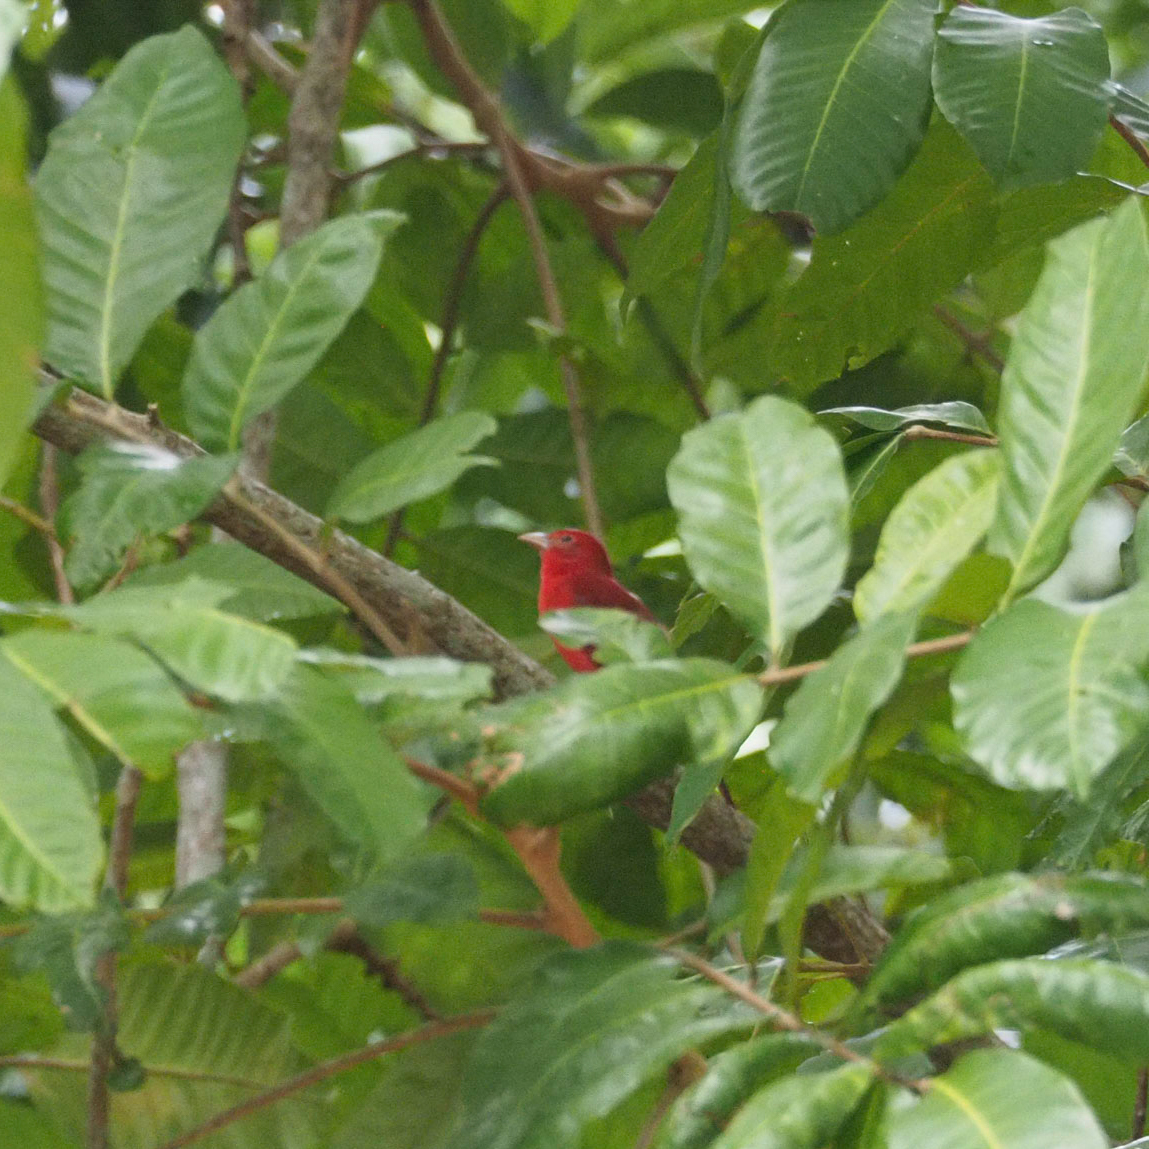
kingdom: Animalia
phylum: Chordata
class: Aves
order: Passeriformes
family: Cardinalidae
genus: Piranga
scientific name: Piranga rubra
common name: Summer tanager
